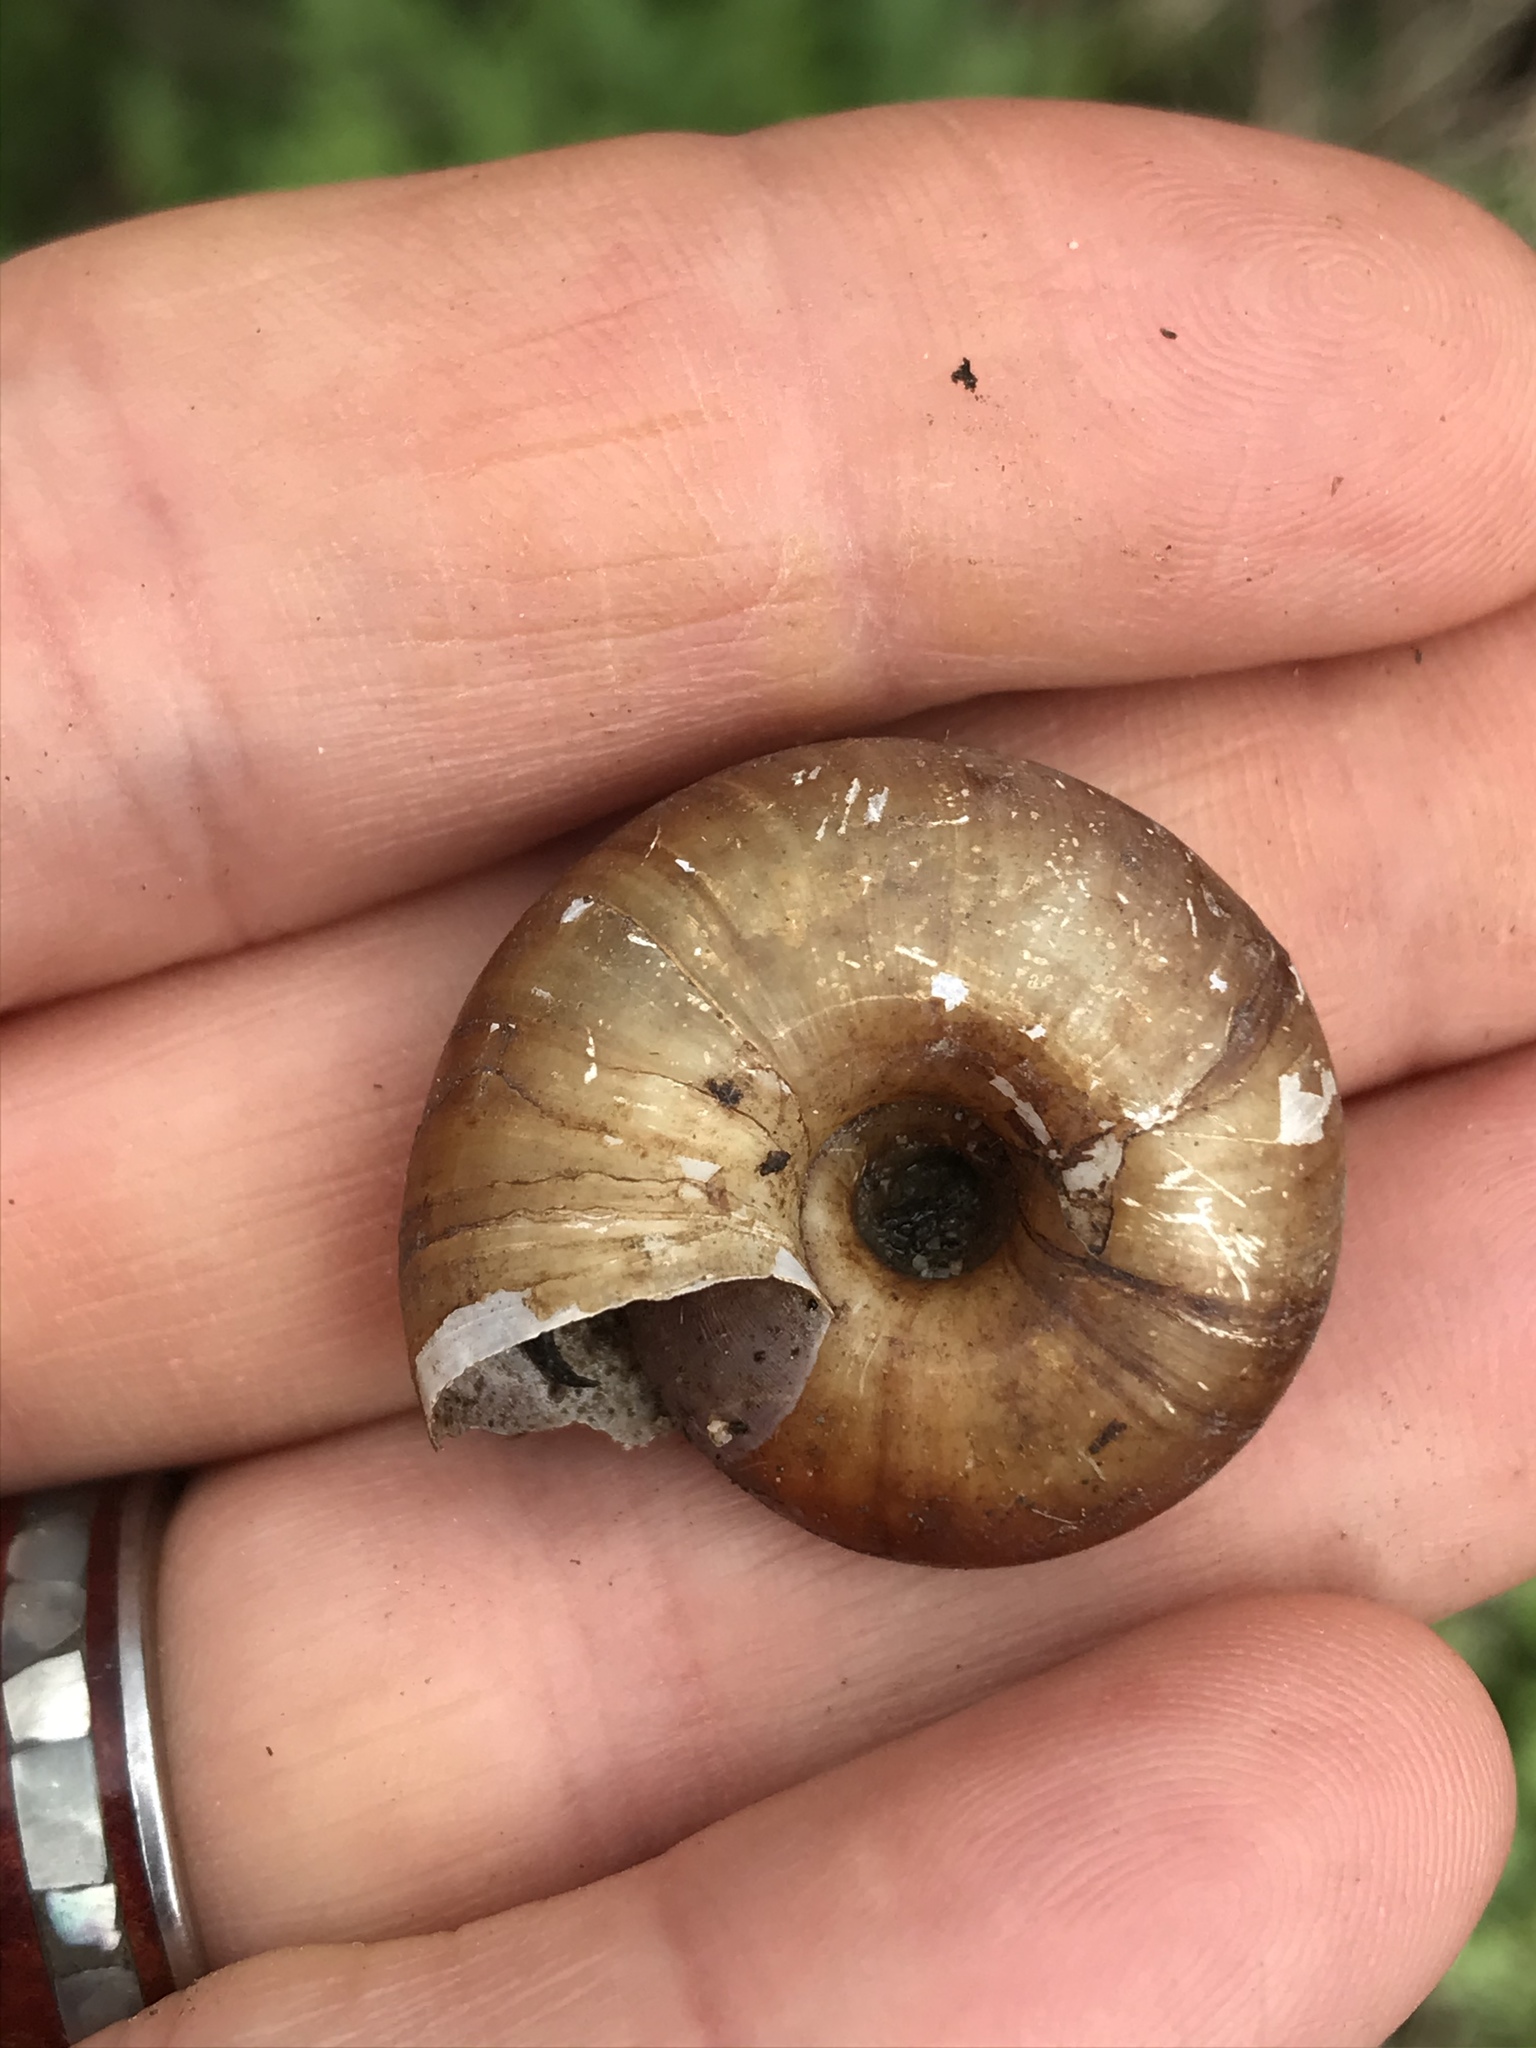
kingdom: Animalia
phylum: Mollusca
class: Gastropoda
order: Stylommatophora
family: Megomphicidae
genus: Glyptostoma
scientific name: Glyptostoma gabrielense
